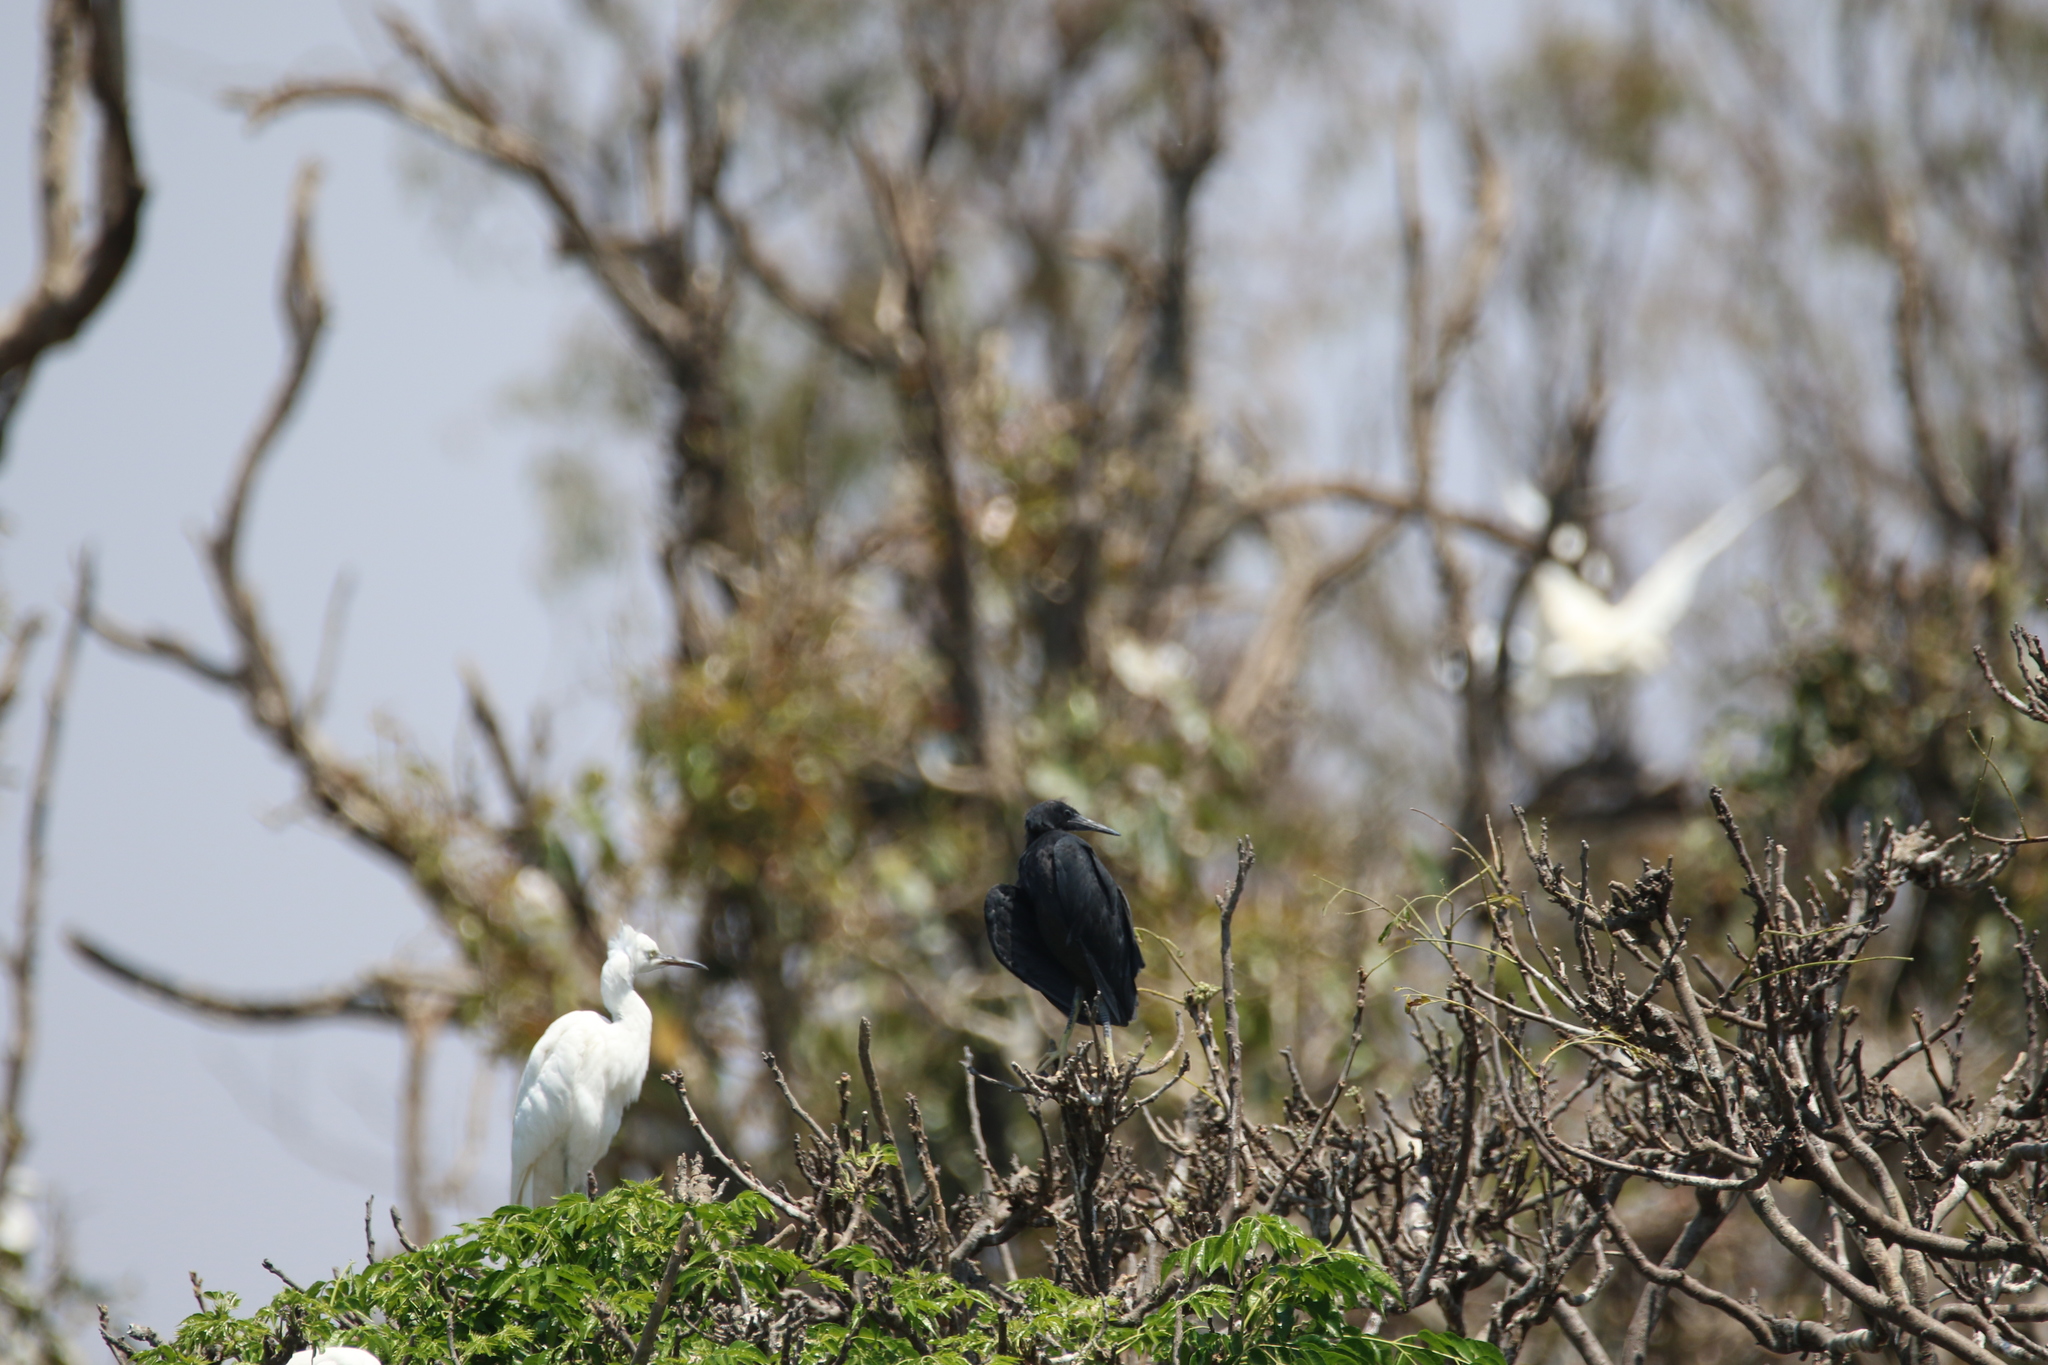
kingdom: Animalia
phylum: Chordata
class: Aves
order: Pelecaniformes
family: Ardeidae
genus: Egretta
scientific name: Egretta dimorpha
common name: Dimorphic egret
